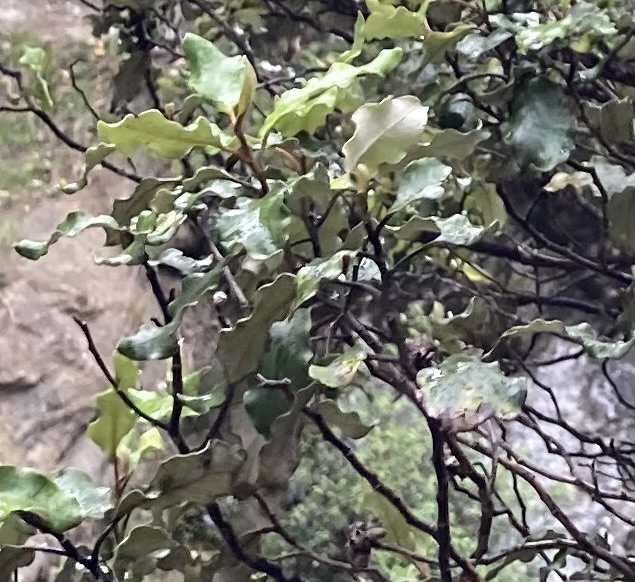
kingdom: Plantae
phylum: Tracheophyta
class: Magnoliopsida
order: Asterales
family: Asteraceae
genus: Olearia
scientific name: Olearia paniculata
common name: Akiraho
